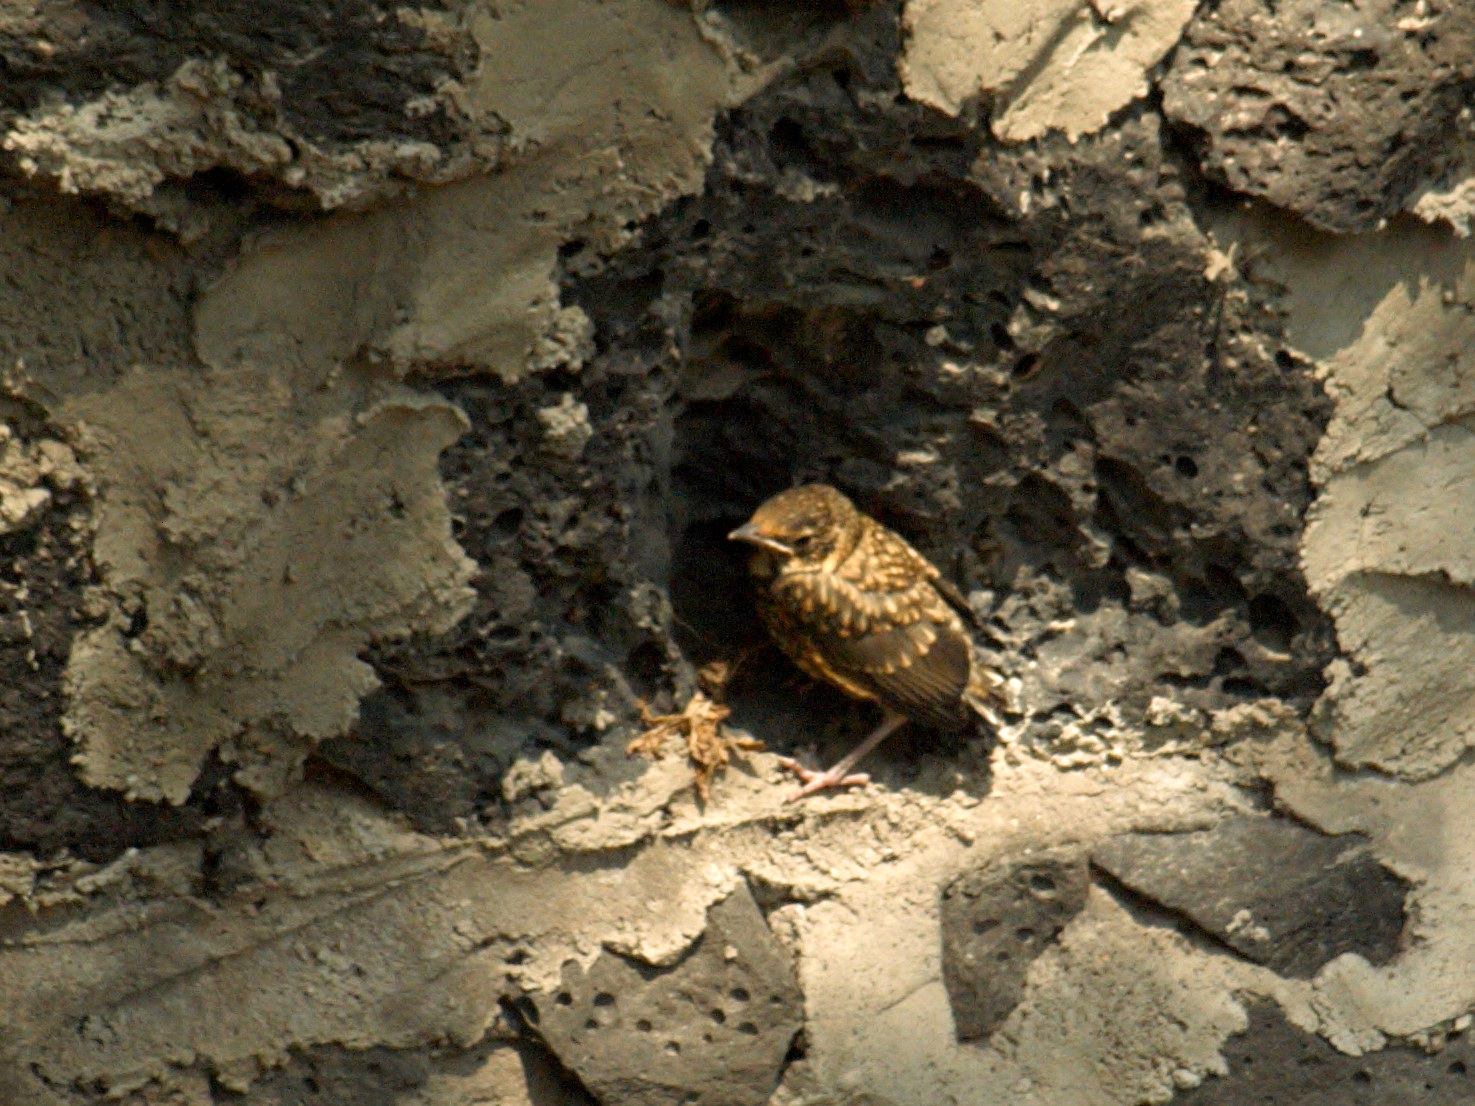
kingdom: Animalia
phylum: Chordata
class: Aves
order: Passeriformes
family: Turdidae
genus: Turdus
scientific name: Turdus rufopalliatus
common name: Rufous-backed robin
